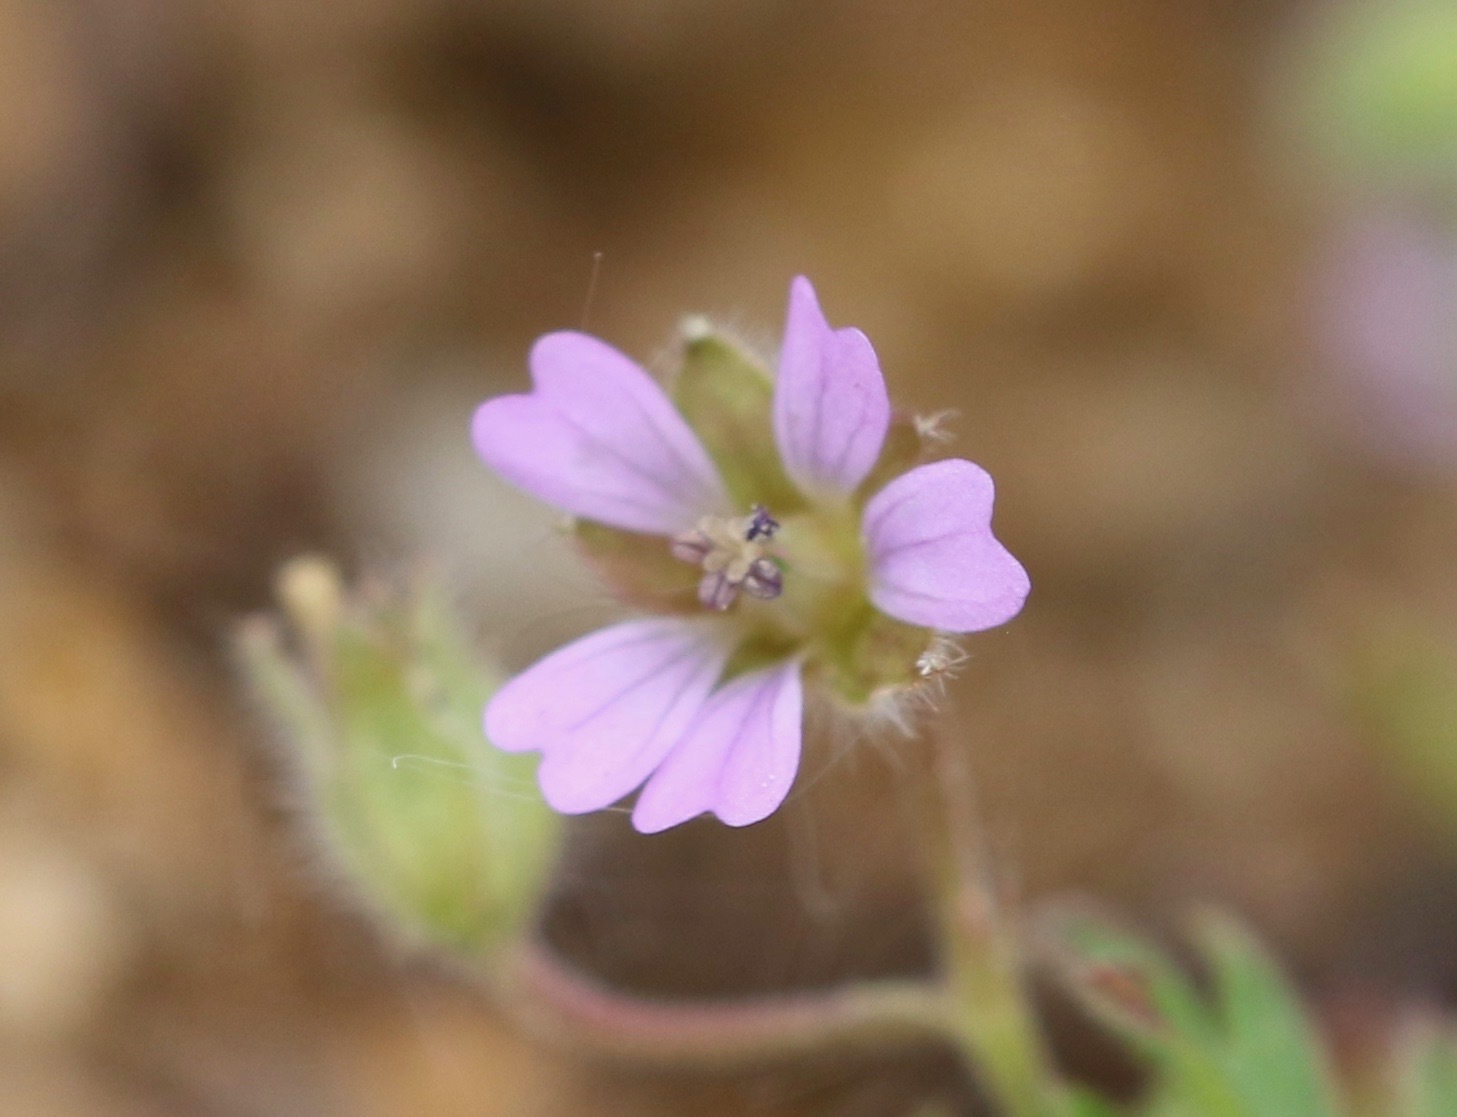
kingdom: Plantae
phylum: Tracheophyta
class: Magnoliopsida
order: Geraniales
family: Geraniaceae
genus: Geranium
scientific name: Geranium pusillum
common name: Small geranium
